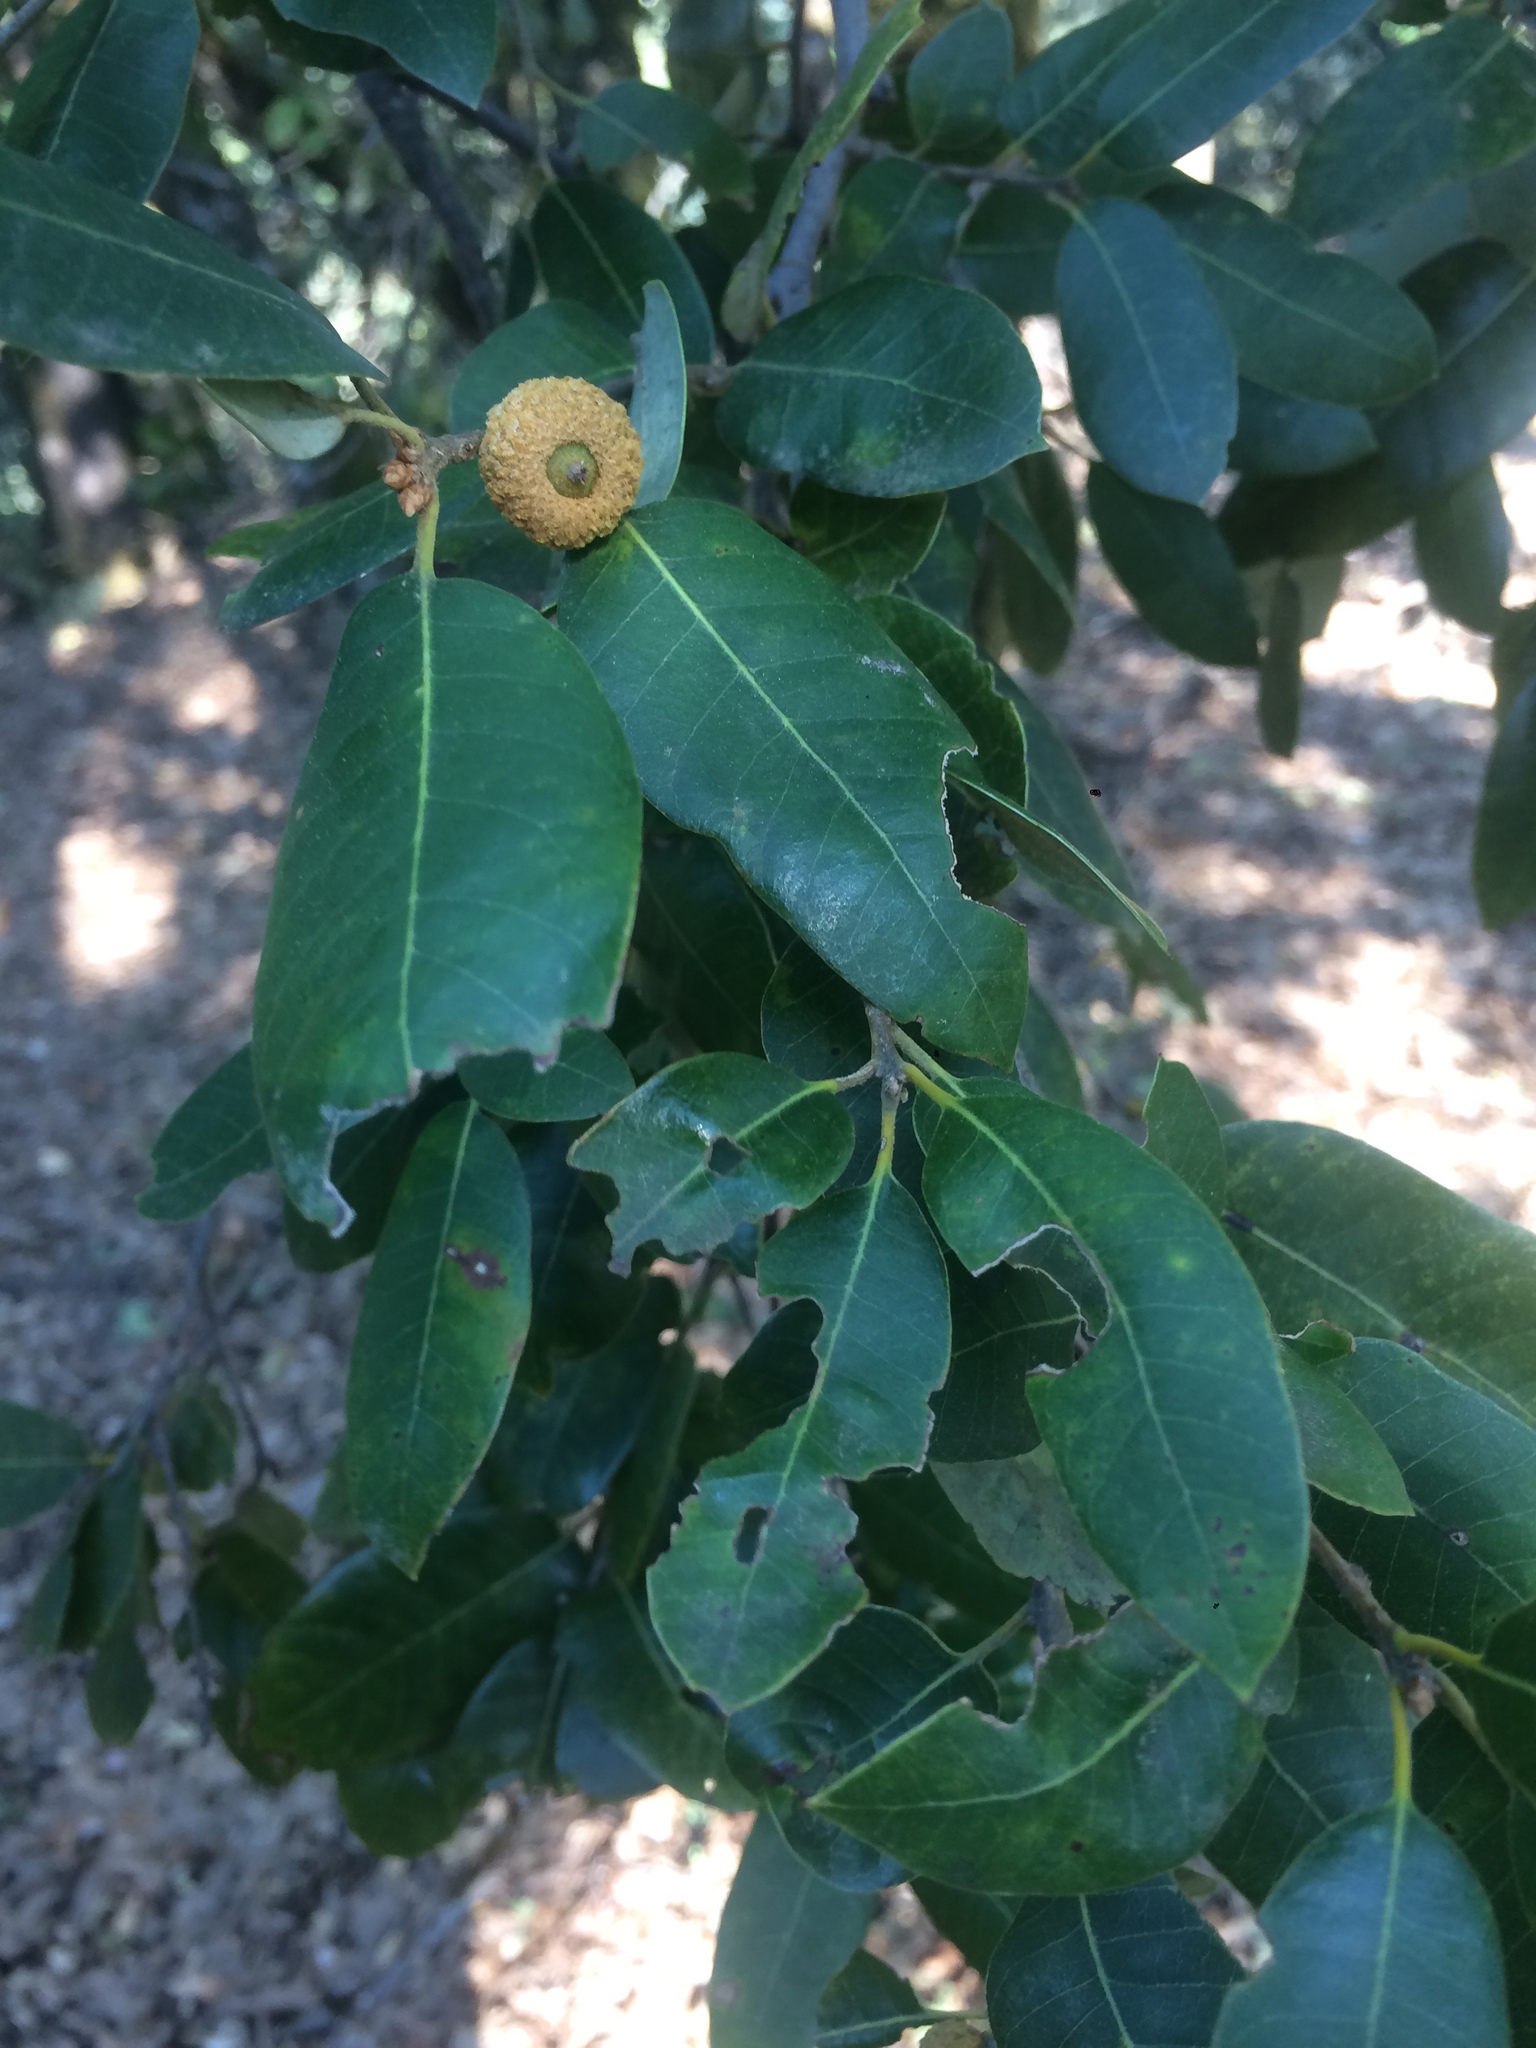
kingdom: Plantae
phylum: Tracheophyta
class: Magnoliopsida
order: Fagales
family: Fagaceae
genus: Quercus
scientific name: Quercus chrysolepis
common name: Canyon live oak
